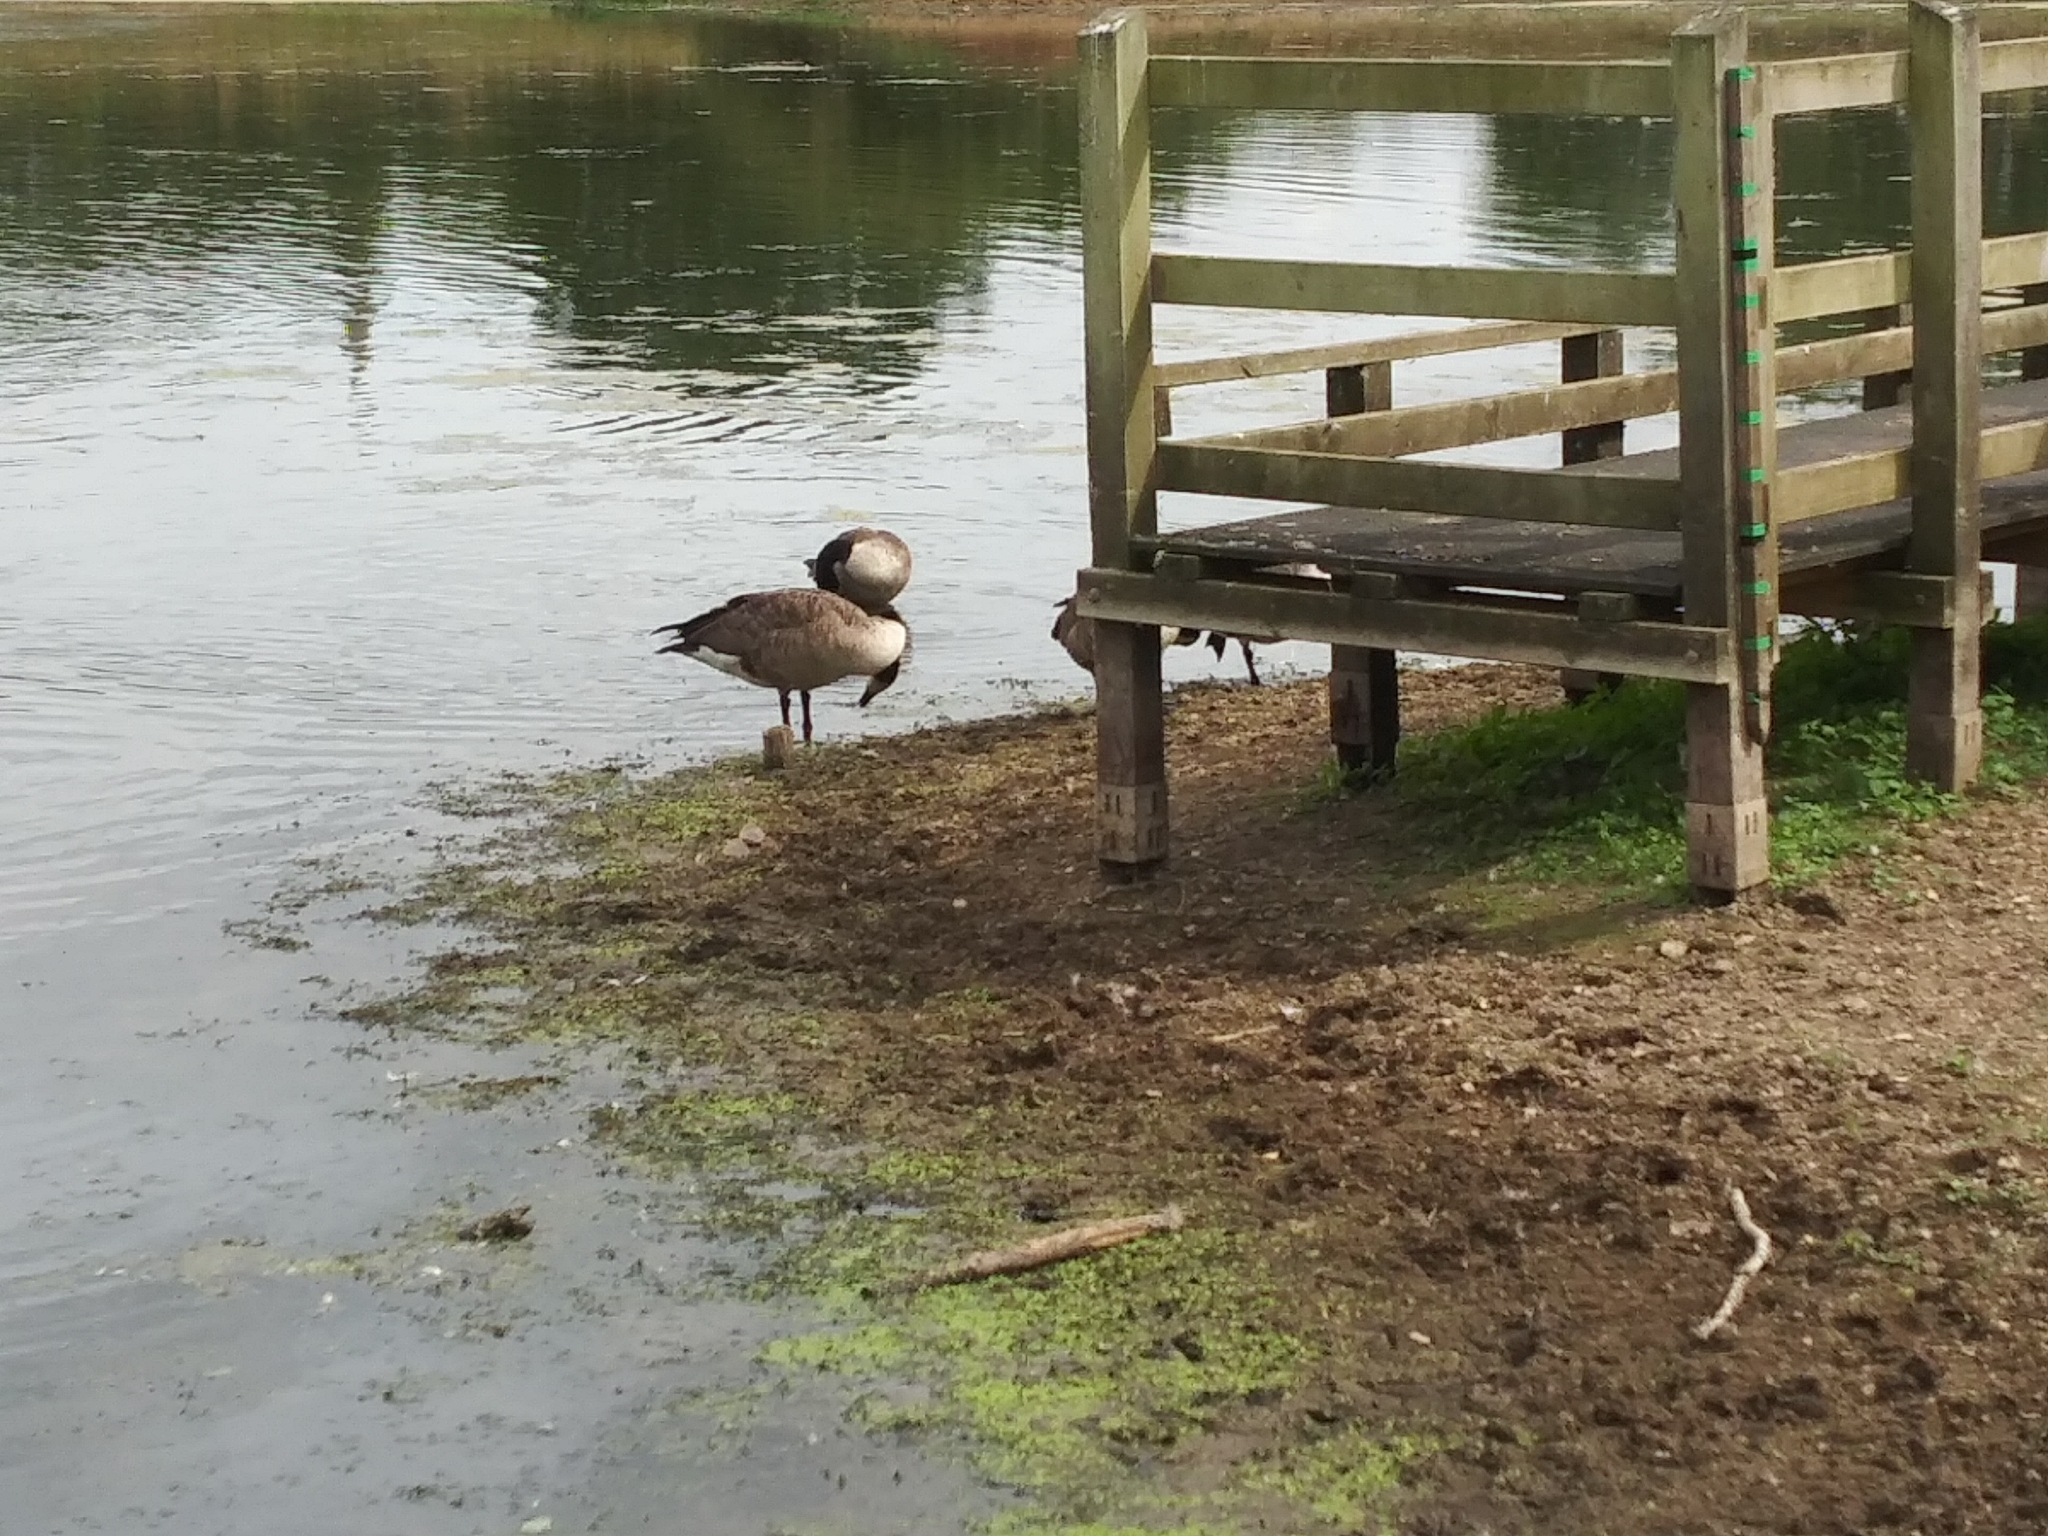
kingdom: Animalia
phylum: Chordata
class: Aves
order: Anseriformes
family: Anatidae
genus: Branta
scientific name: Branta canadensis
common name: Canada goose
